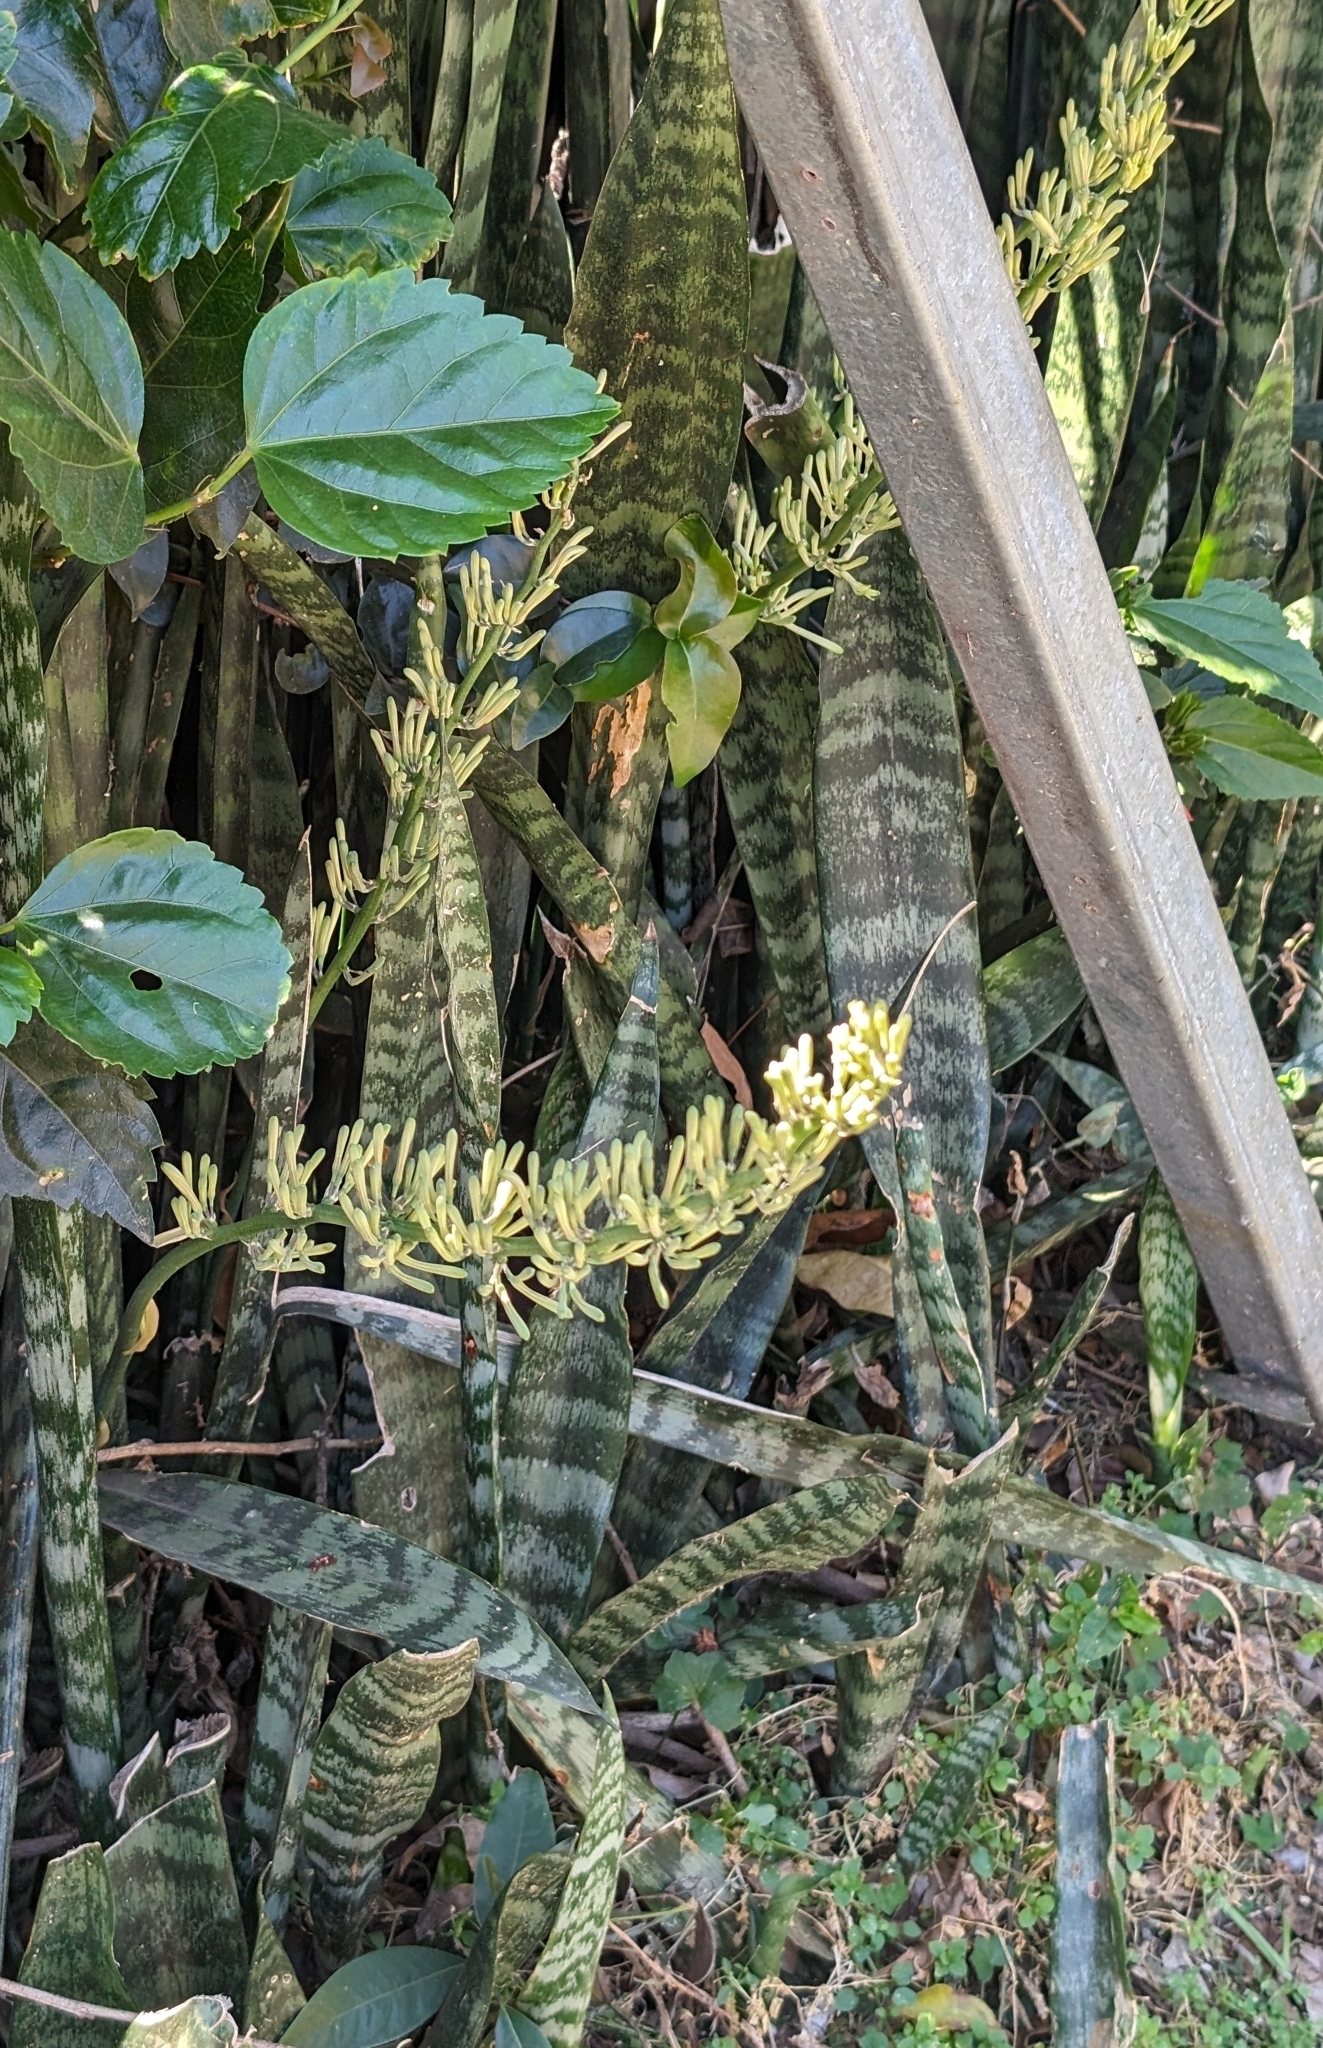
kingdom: Plantae
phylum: Tracheophyta
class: Liliopsida
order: Asparagales
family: Asparagaceae
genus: Dracaena
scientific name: Dracaena trifasciata
